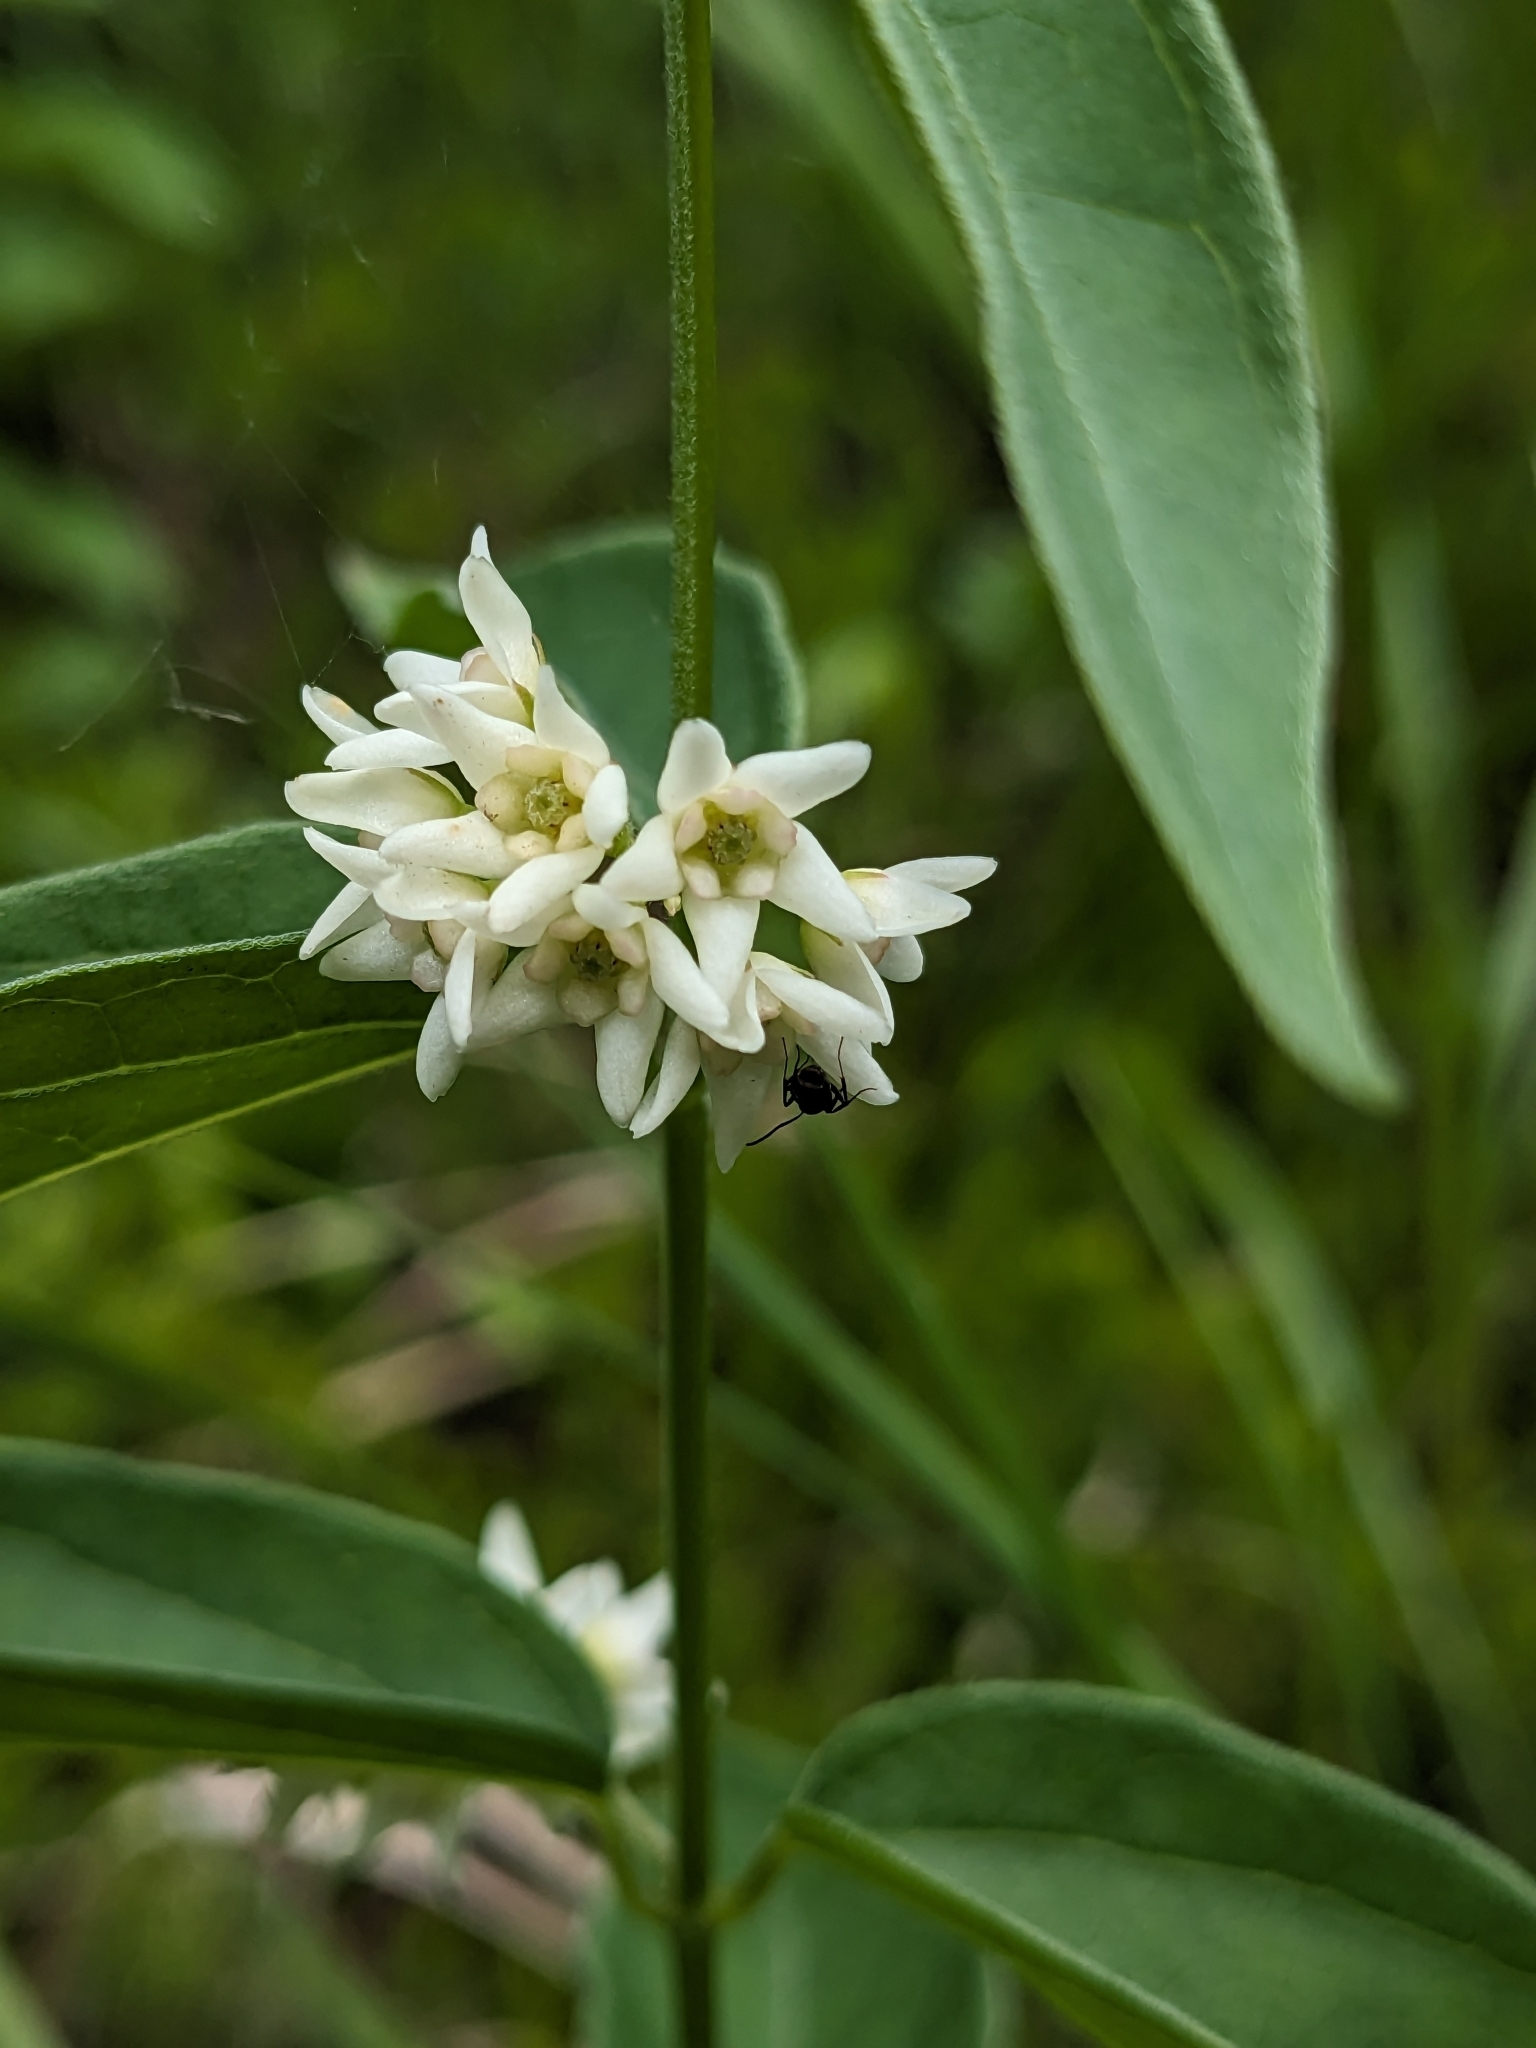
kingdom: Plantae
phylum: Tracheophyta
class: Magnoliopsida
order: Gentianales
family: Apocynaceae
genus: Vincetoxicum
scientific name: Vincetoxicum hirundinaria
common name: White swallowwort
